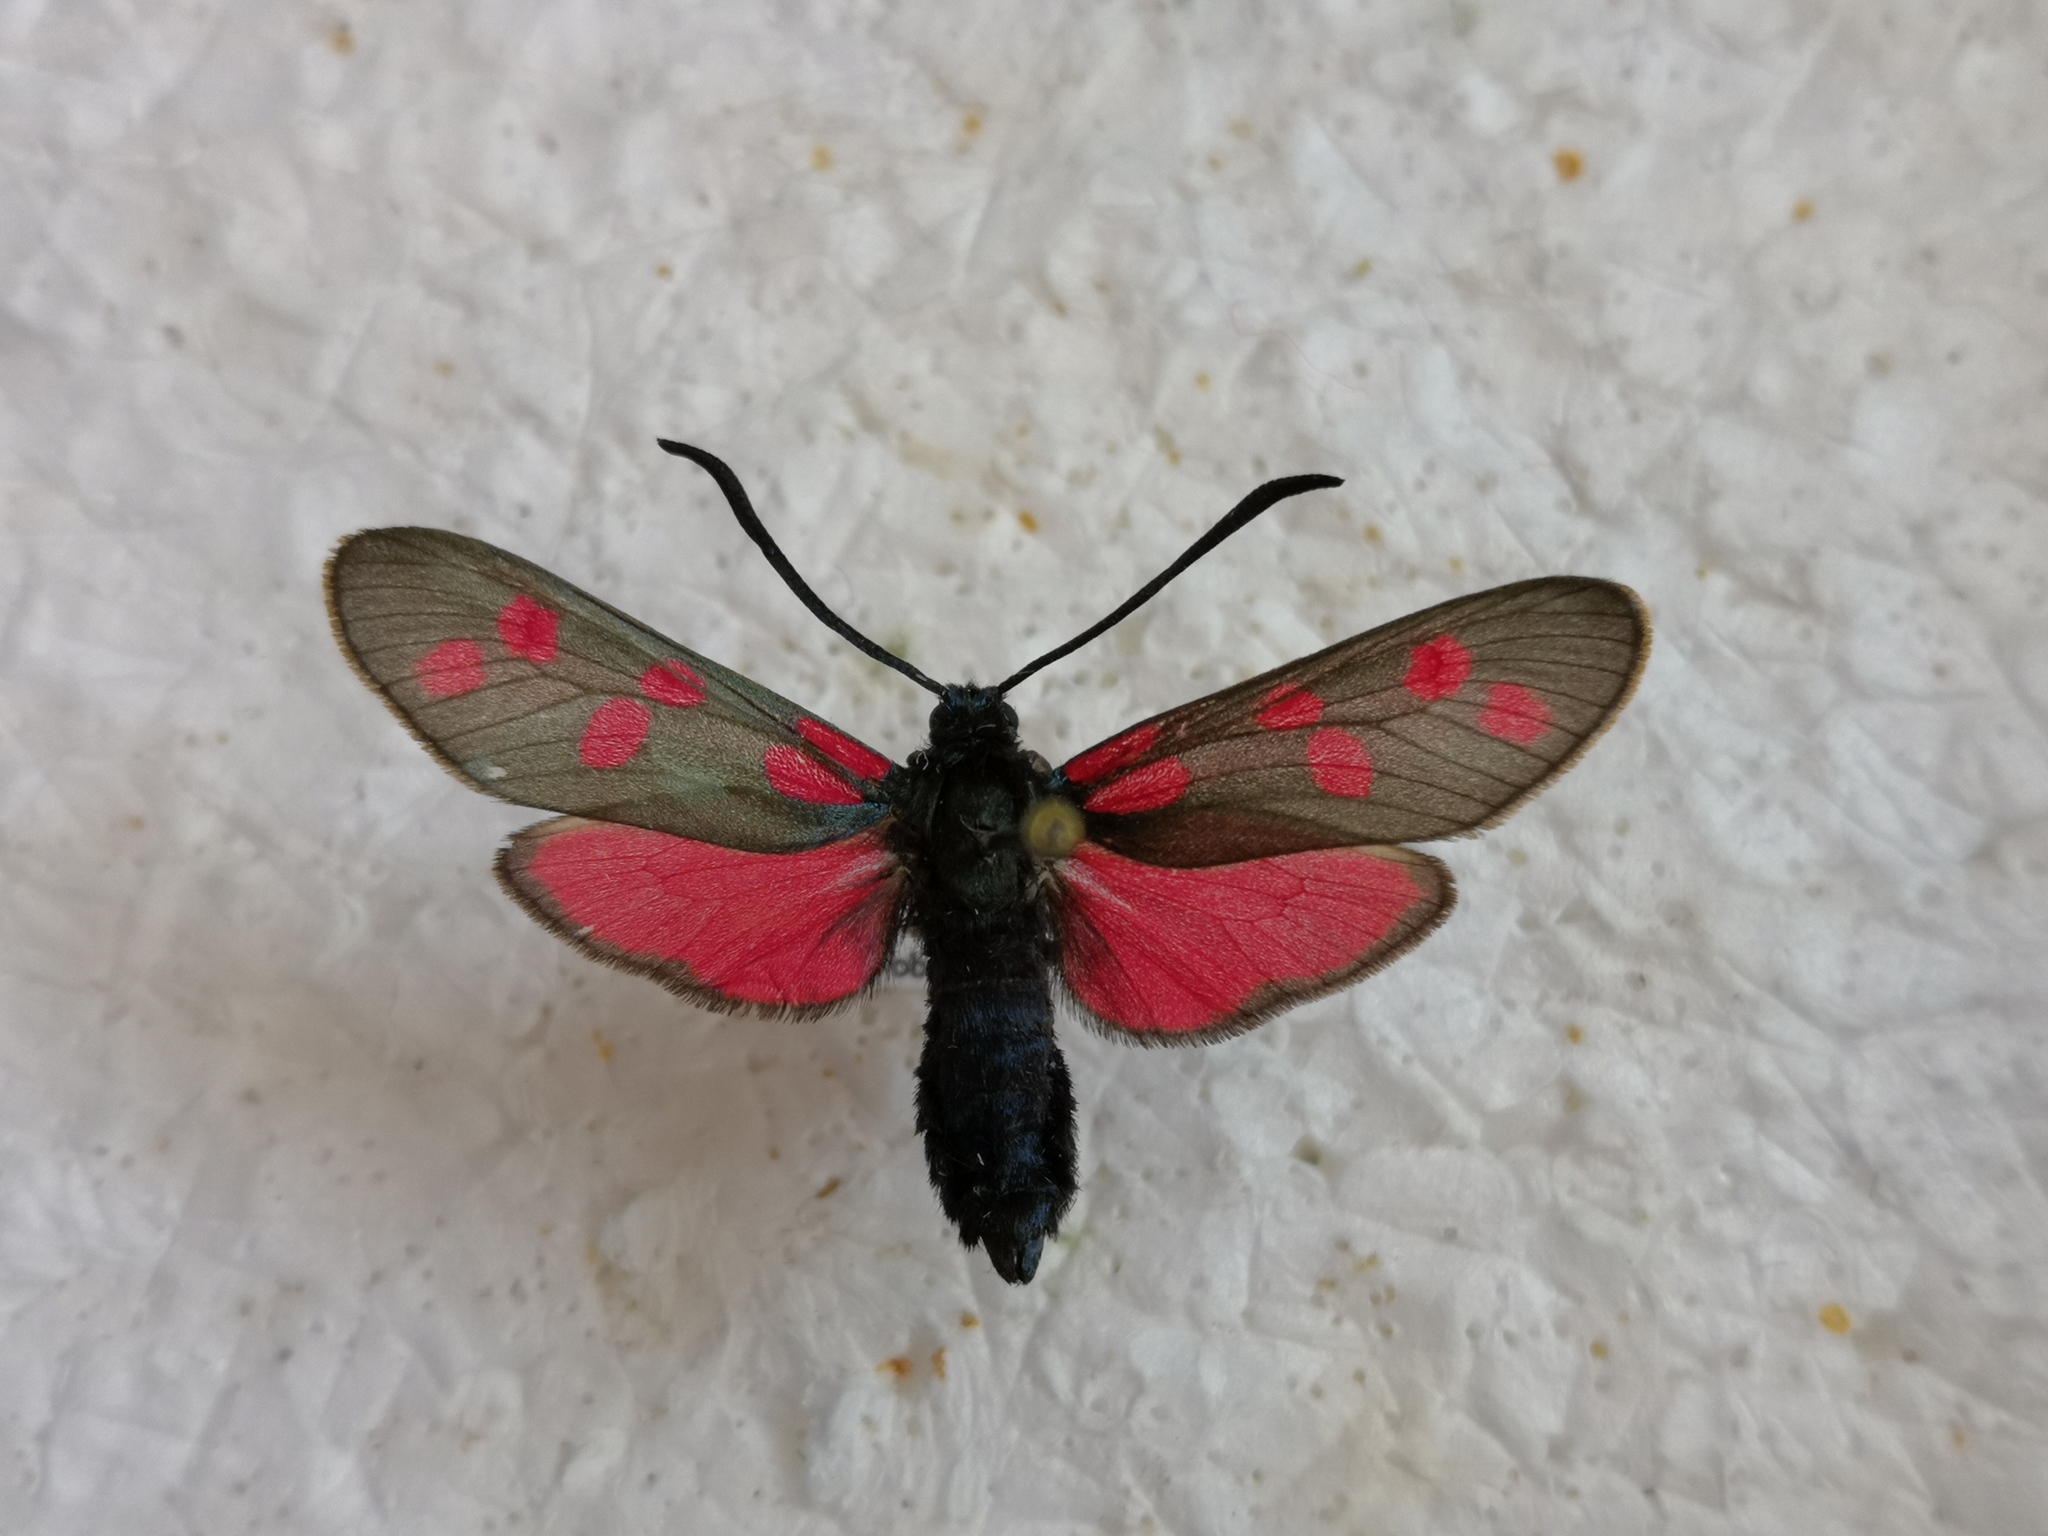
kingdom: Animalia
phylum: Arthropoda
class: Insecta
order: Lepidoptera
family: Zygaenidae
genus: Zygaena
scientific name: Zygaena filipendulae
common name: Six-spot burnet
